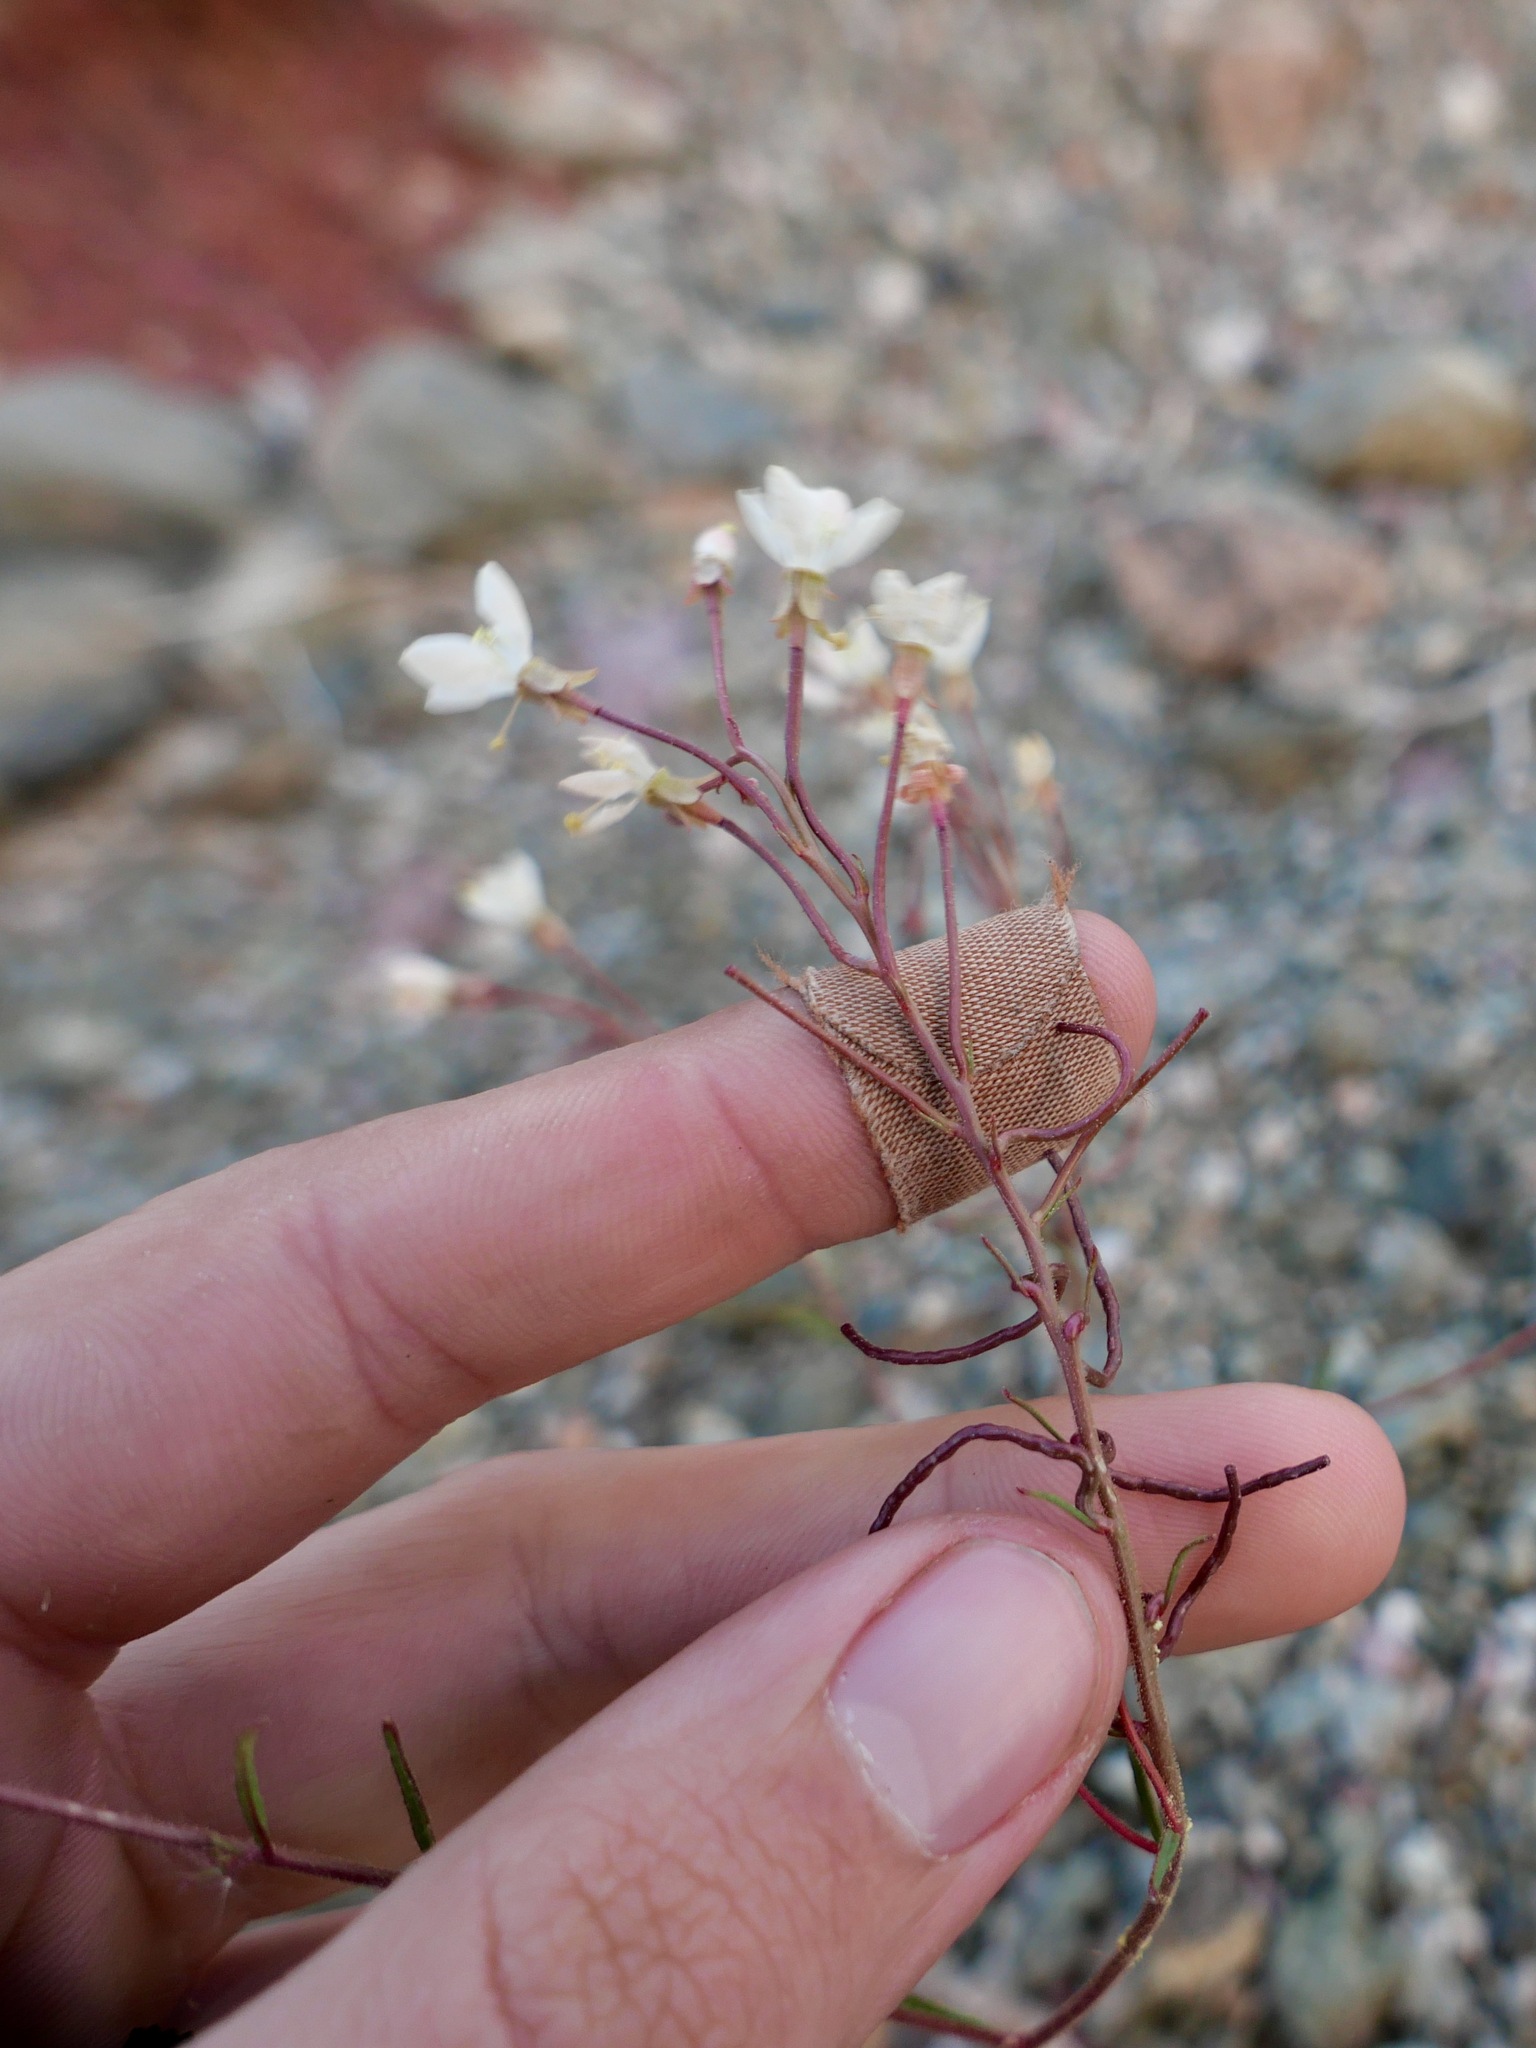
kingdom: Plantae
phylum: Tracheophyta
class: Magnoliopsida
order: Myrtales
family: Onagraceae
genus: Eremothera
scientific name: Eremothera refracta
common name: Narrowleaf suncup
